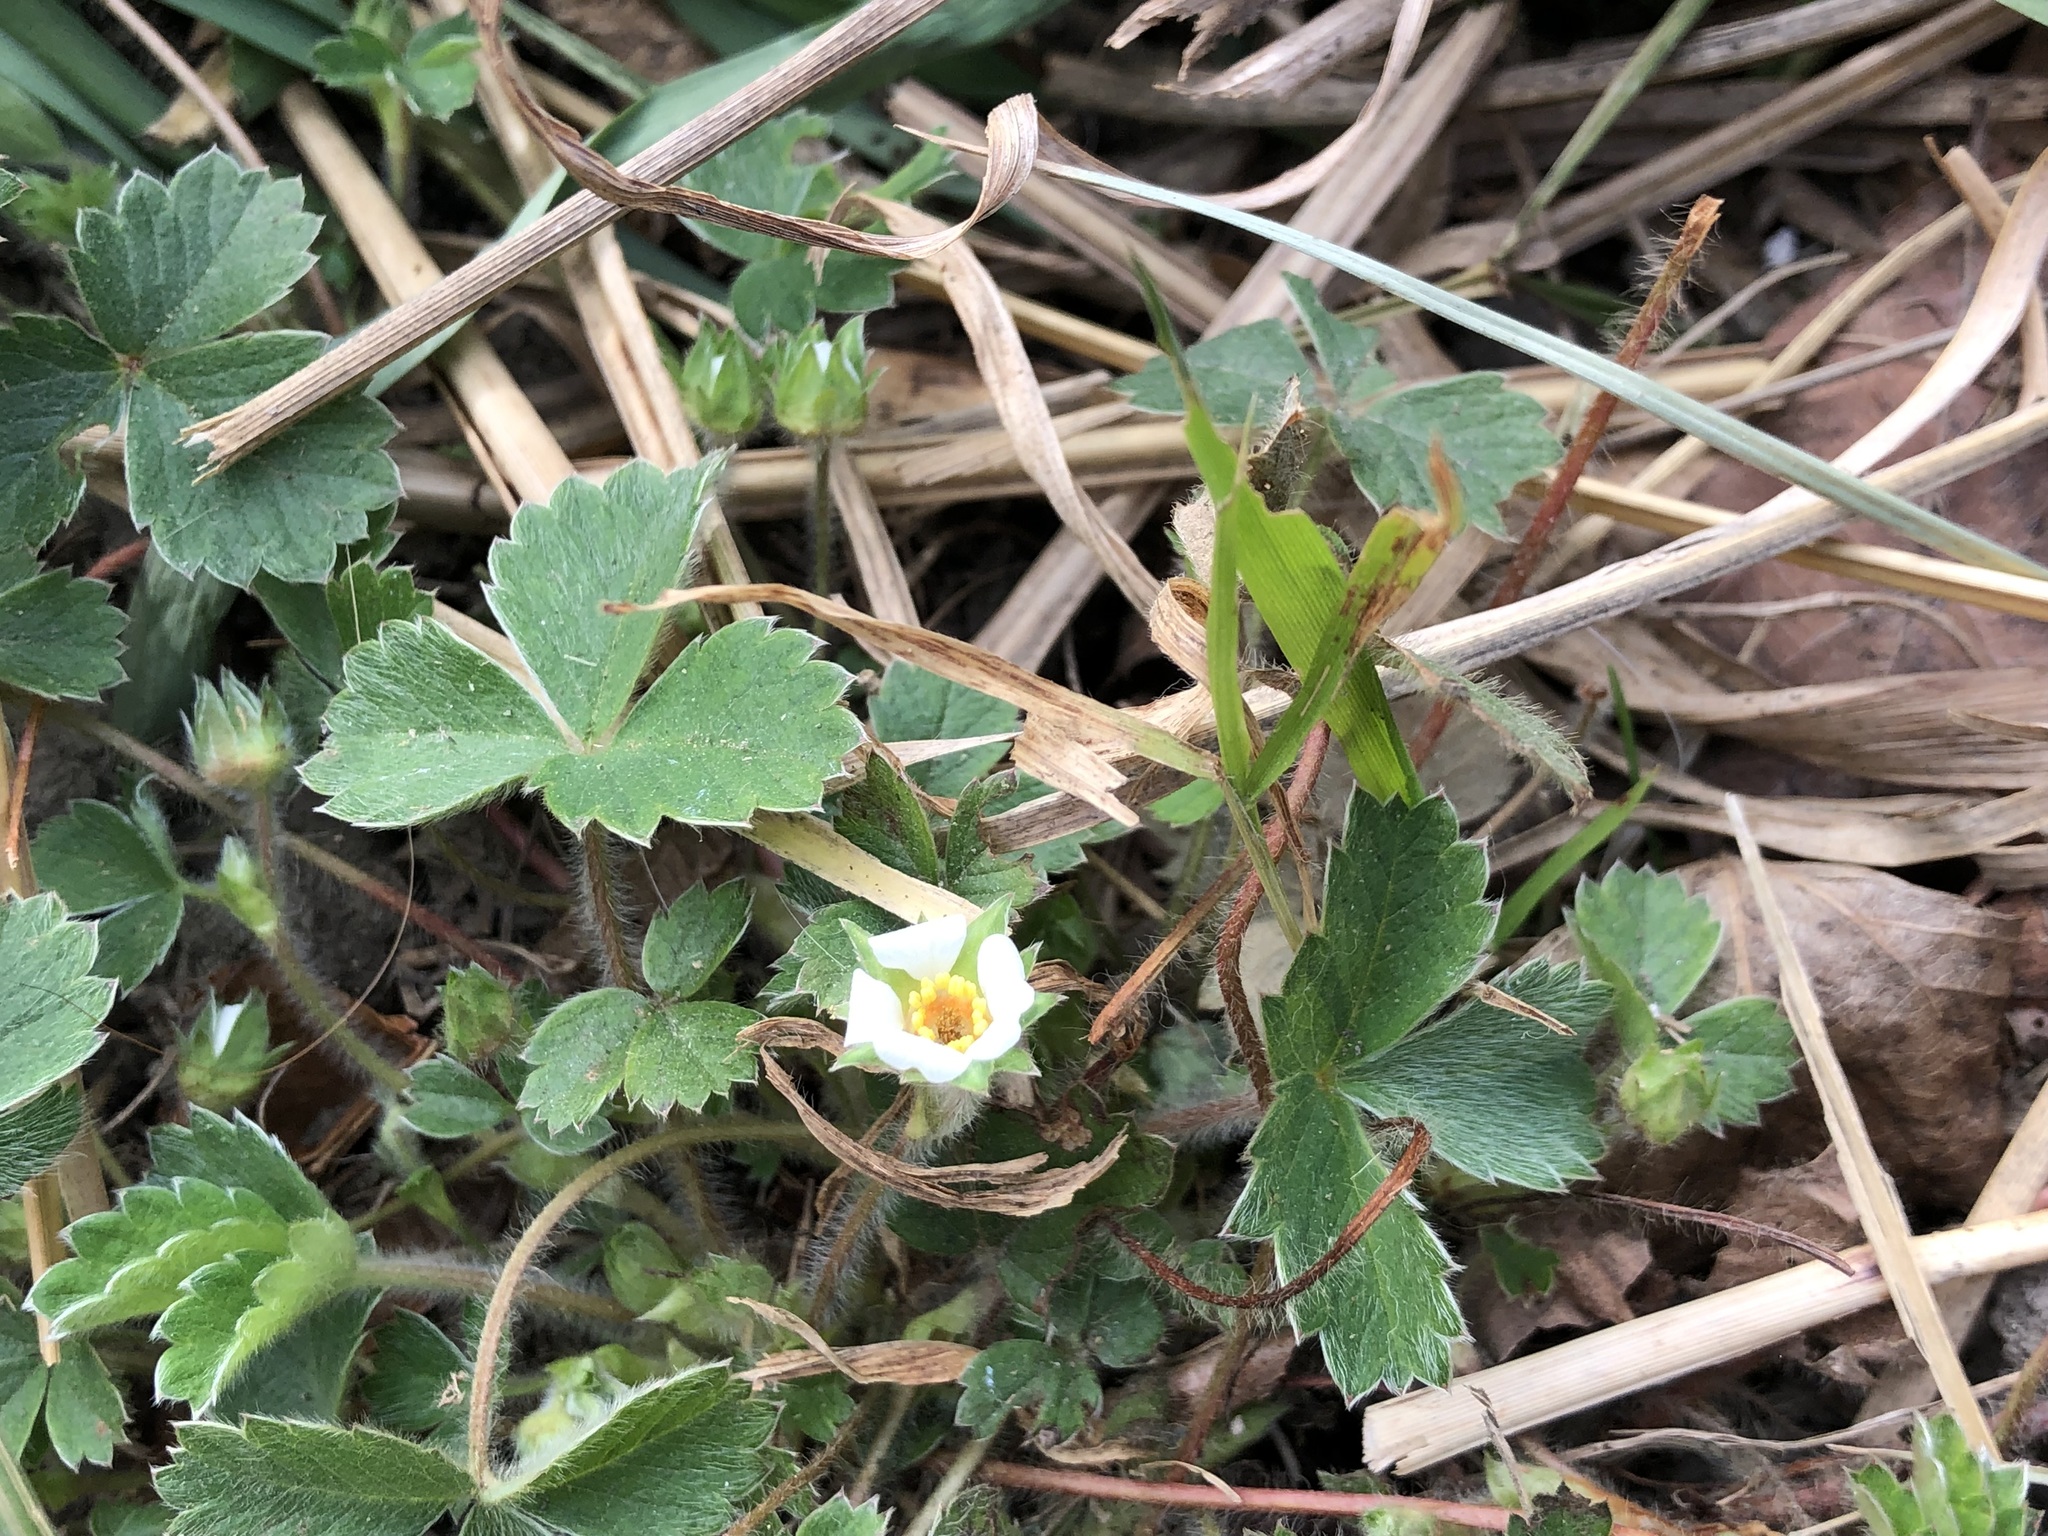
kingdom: Plantae
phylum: Tracheophyta
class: Magnoliopsida
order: Rosales
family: Rosaceae
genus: Potentilla
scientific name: Potentilla sterilis
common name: Barren strawberry
